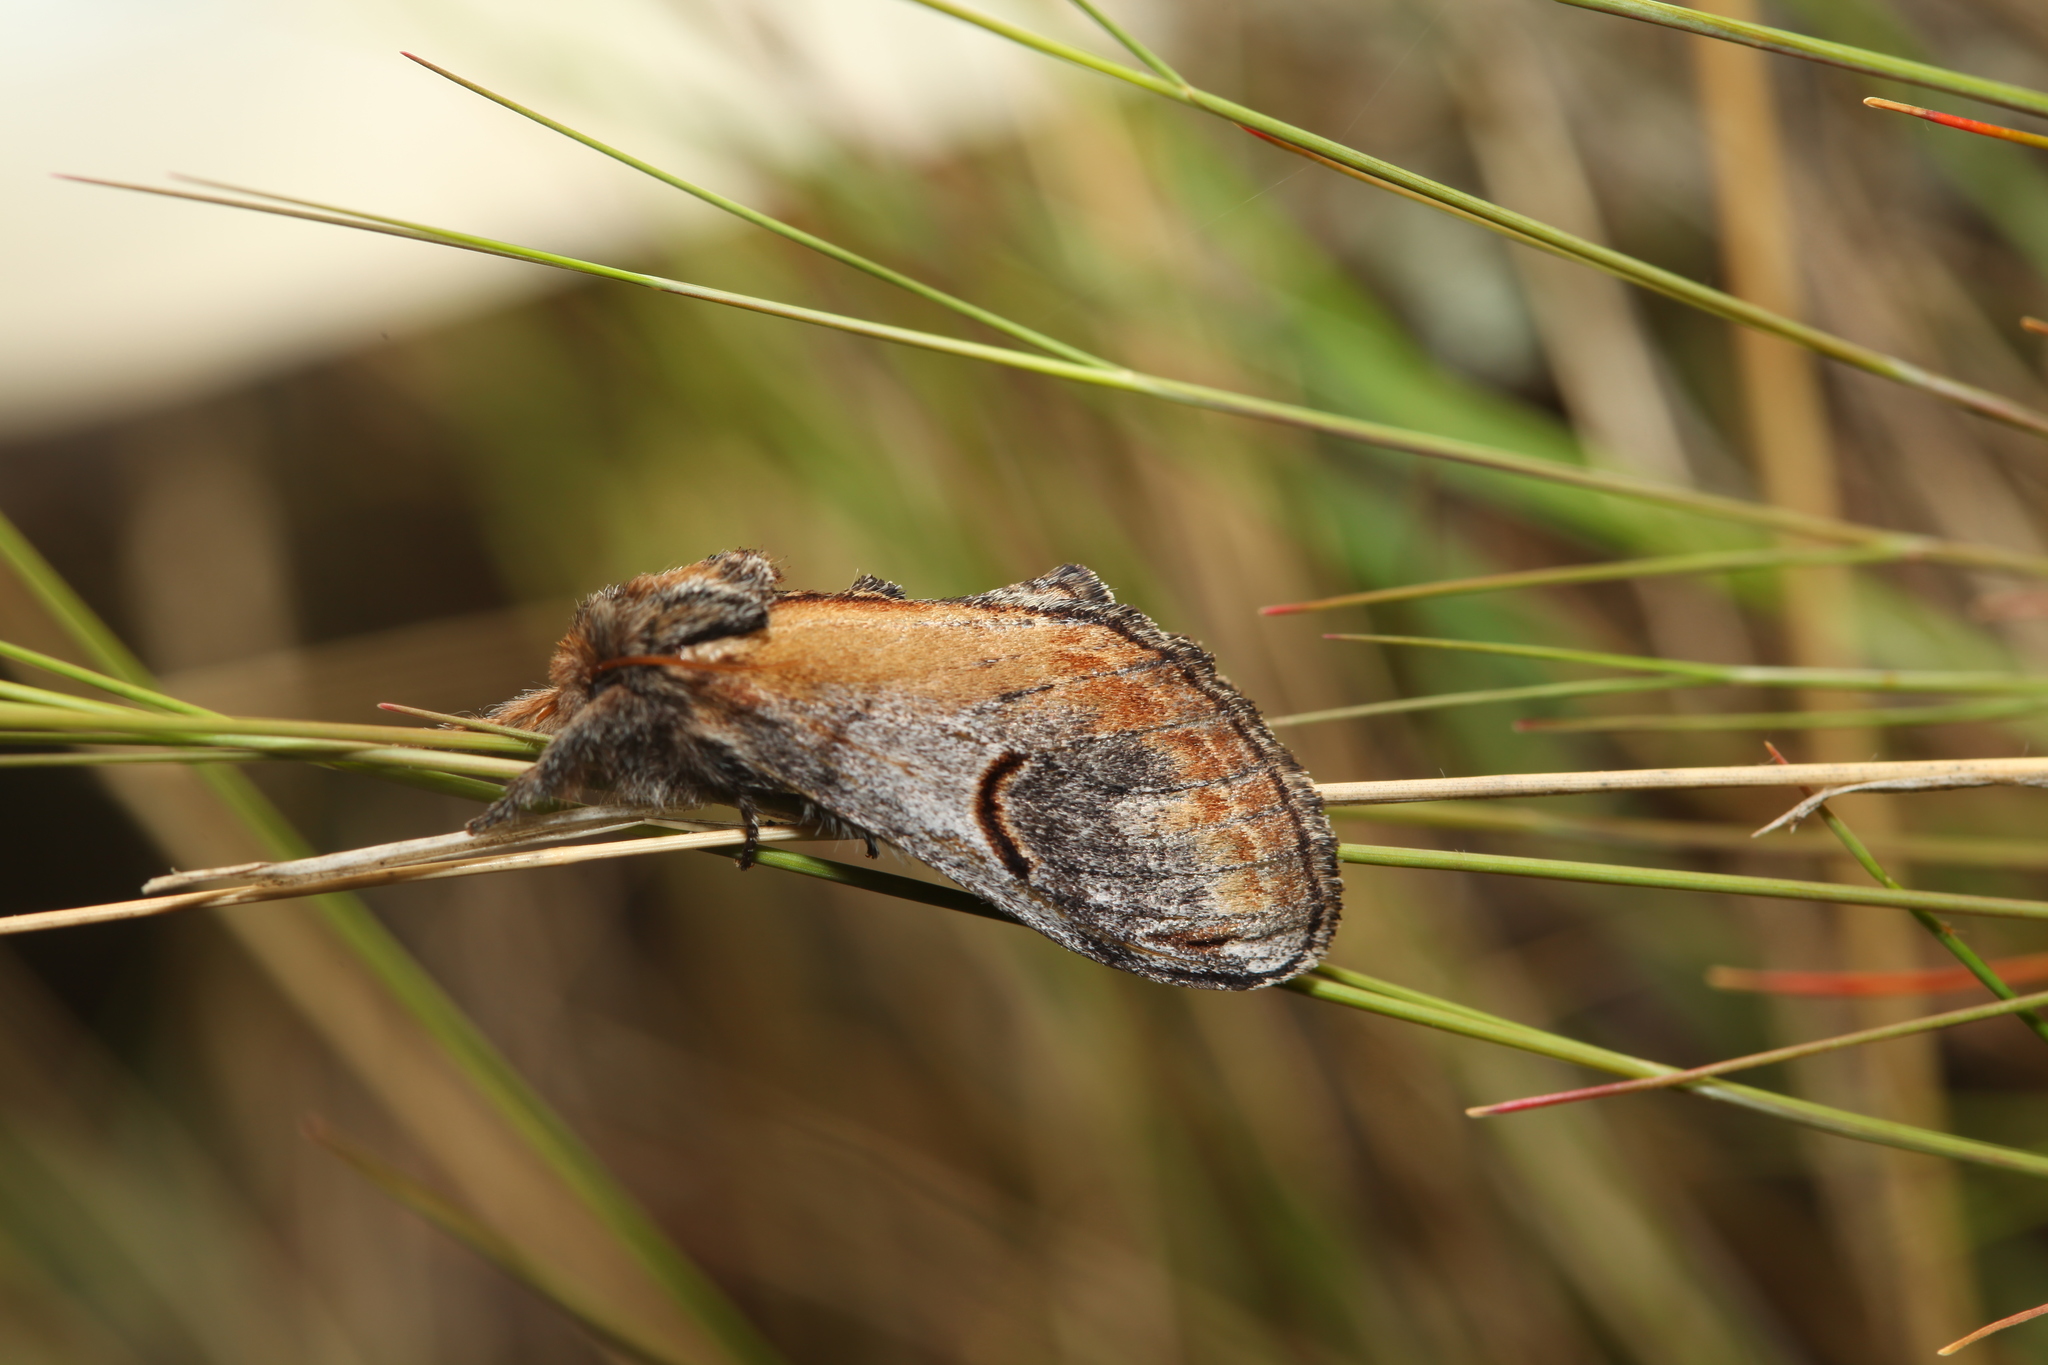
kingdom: Animalia
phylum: Arthropoda
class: Insecta
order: Lepidoptera
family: Notodontidae
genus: Notodonta
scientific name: Notodonta ziczac
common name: Pebble prominent
